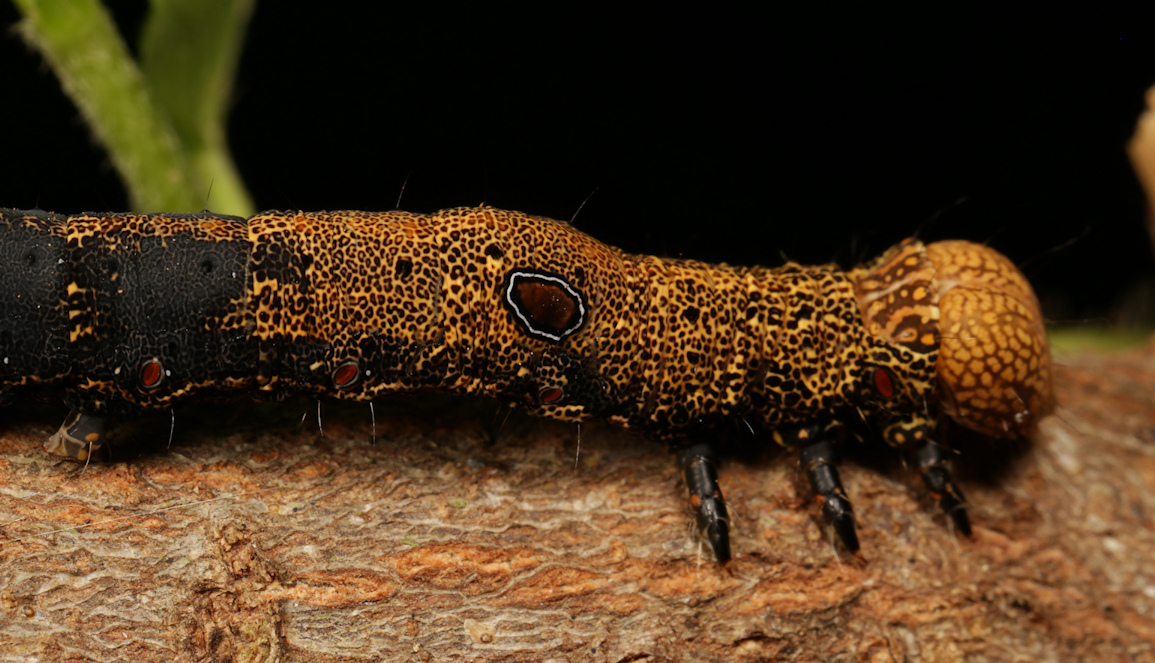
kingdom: Animalia
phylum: Arthropoda
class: Insecta
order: Lepidoptera
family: Erebidae
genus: Erebus
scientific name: Erebus walkeri
